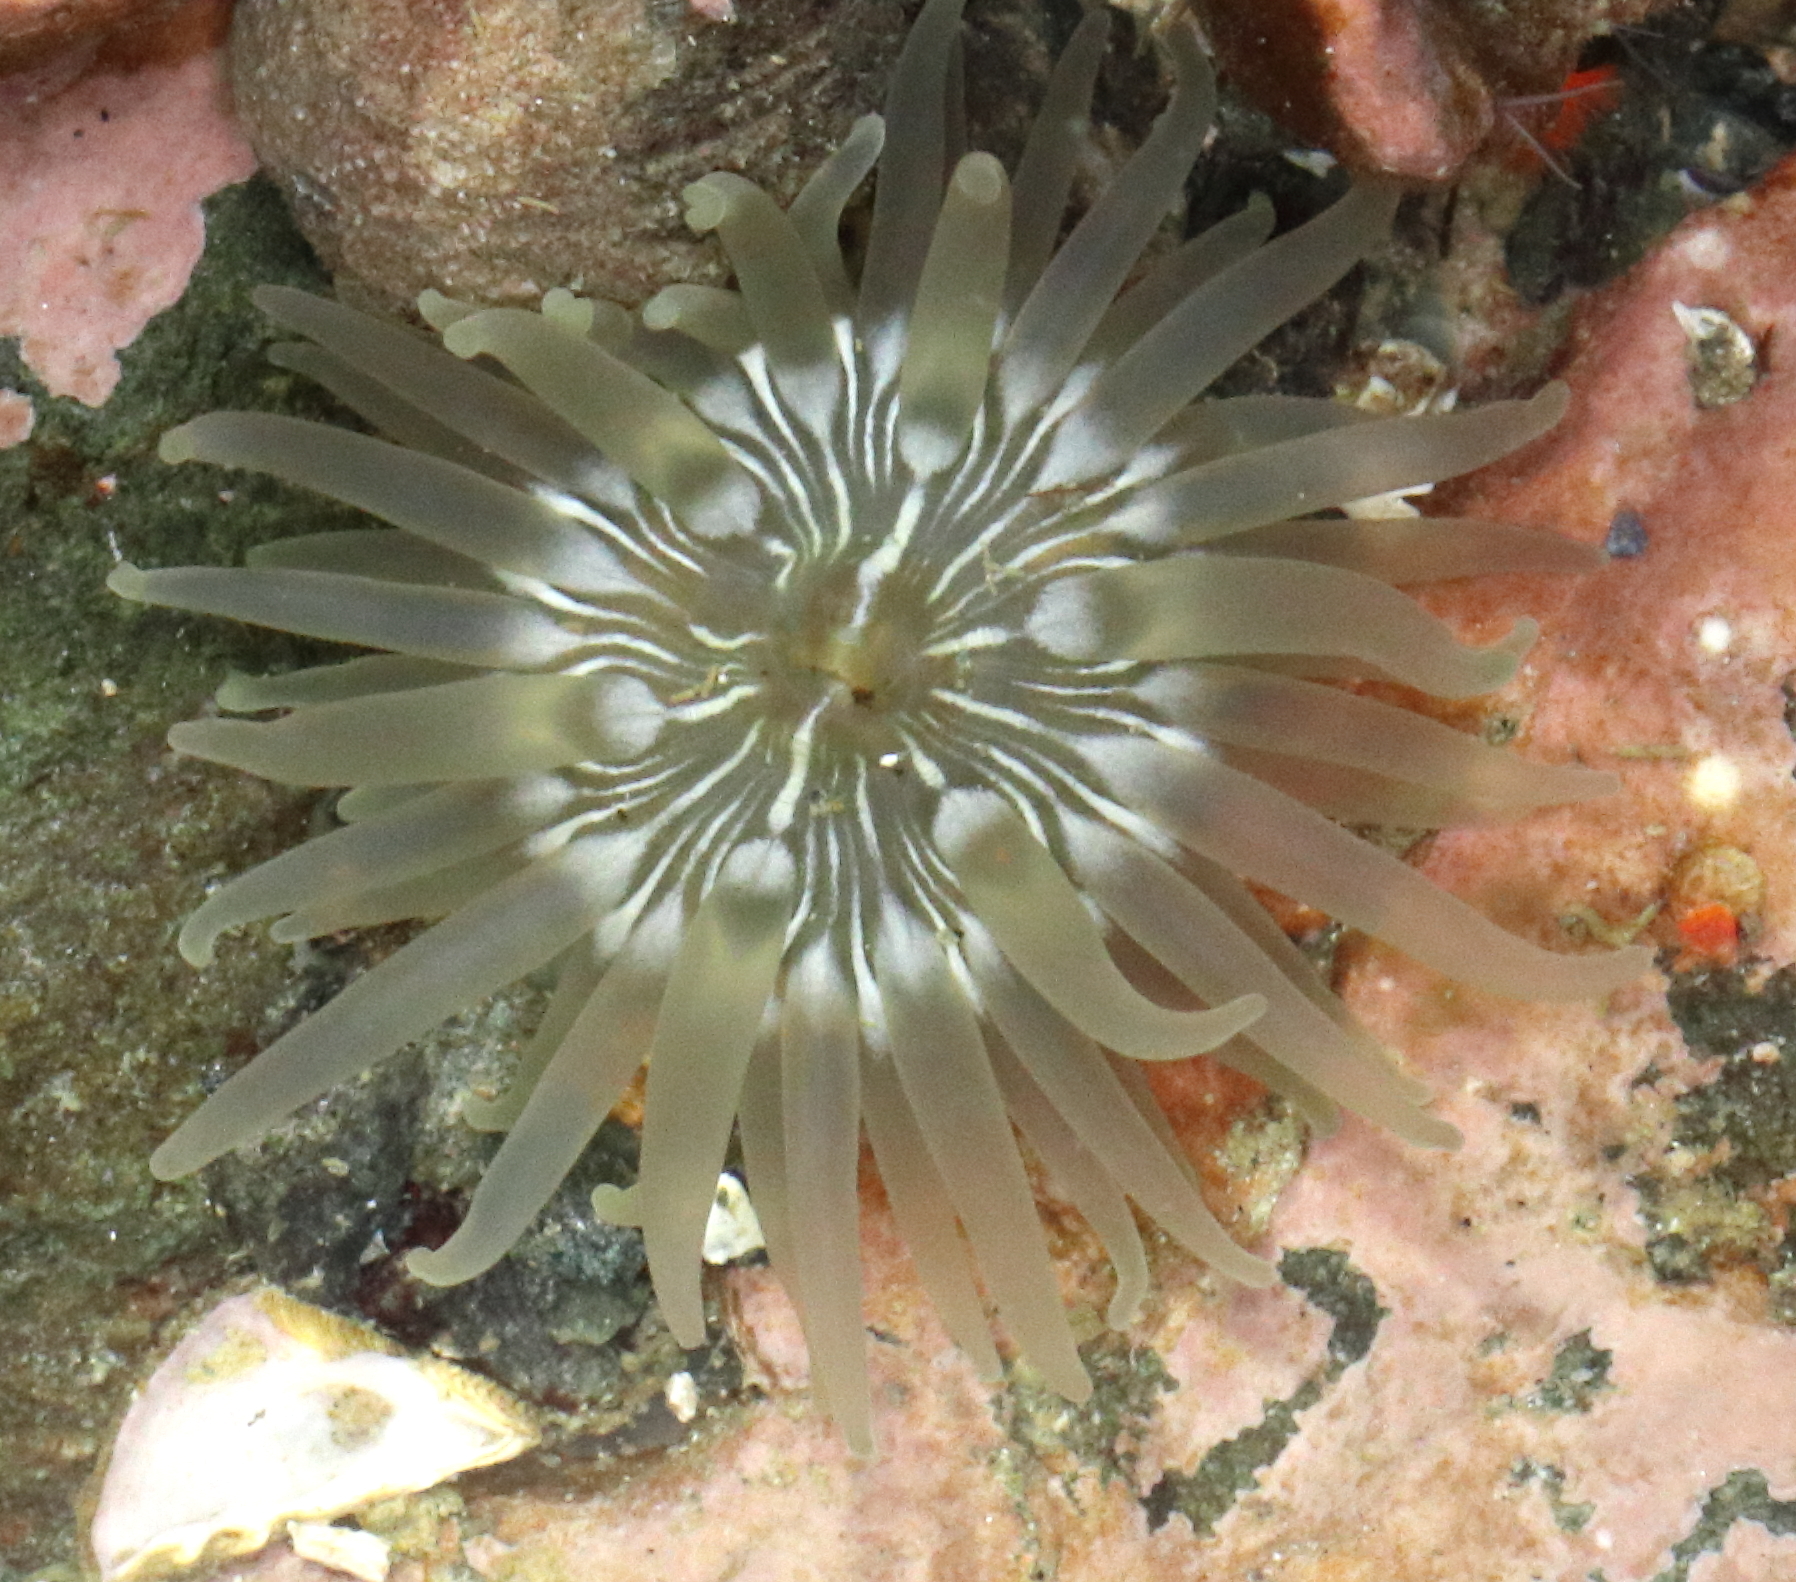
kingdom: Animalia
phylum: Cnidaria
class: Anthozoa
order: Actiniaria
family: Actiniidae
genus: Aulactinia
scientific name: Aulactinia incubans
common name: Incubating anemone
